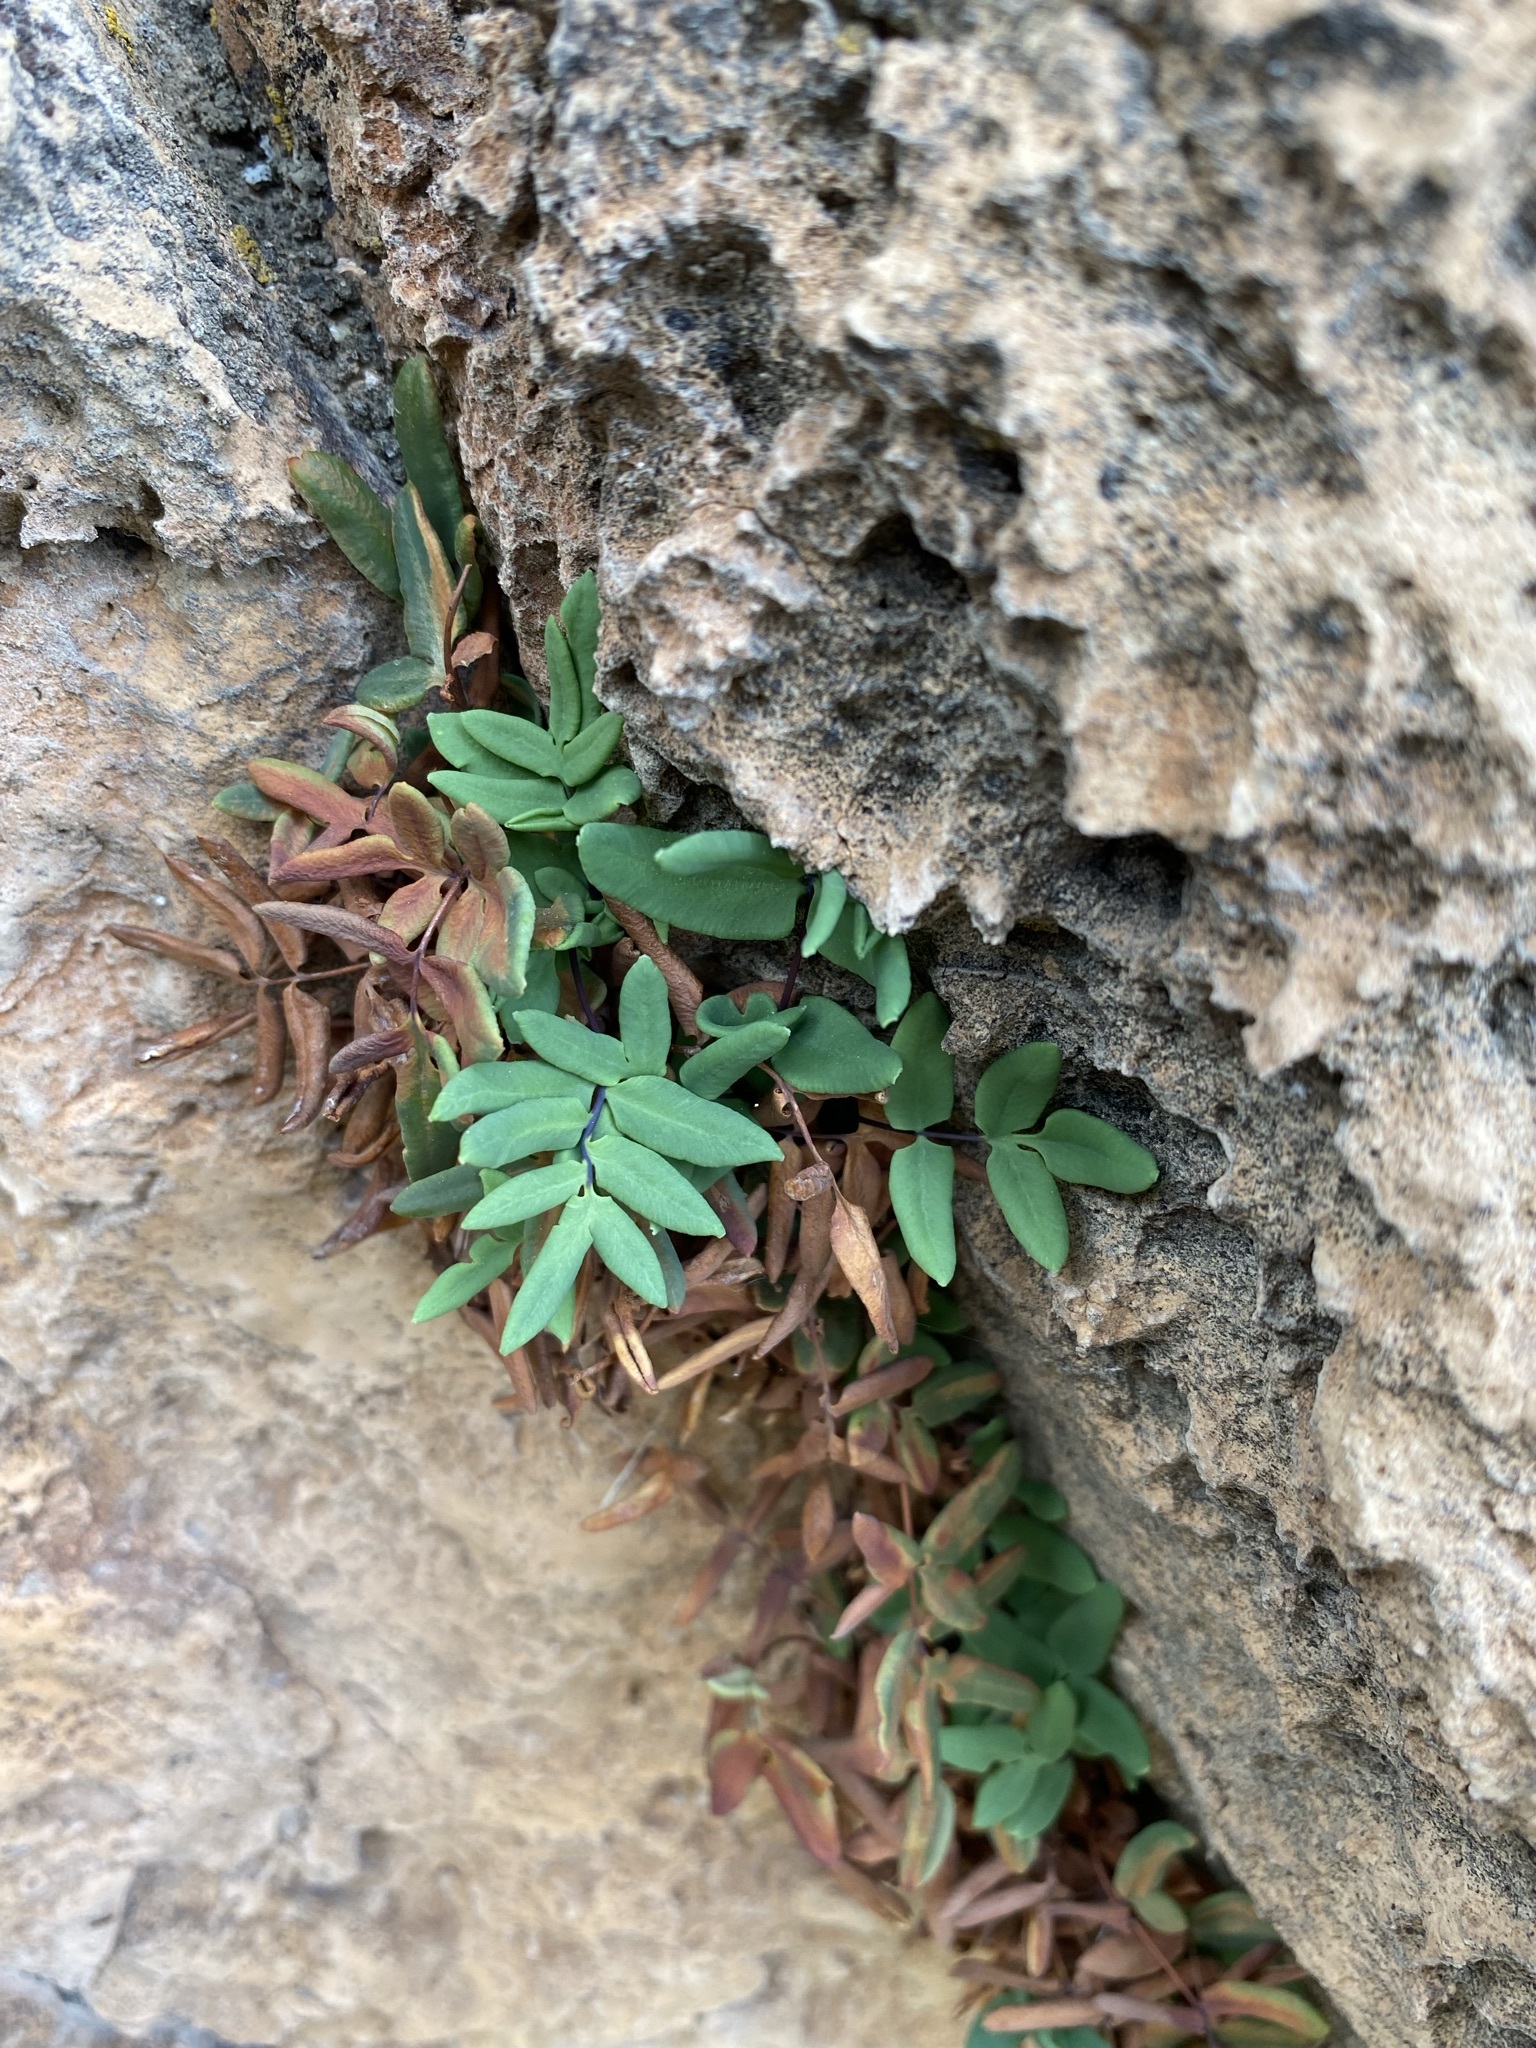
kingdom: Plantae
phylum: Tracheophyta
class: Polypodiopsida
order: Polypodiales
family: Pteridaceae
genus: Pellaea
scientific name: Pellaea glabella
